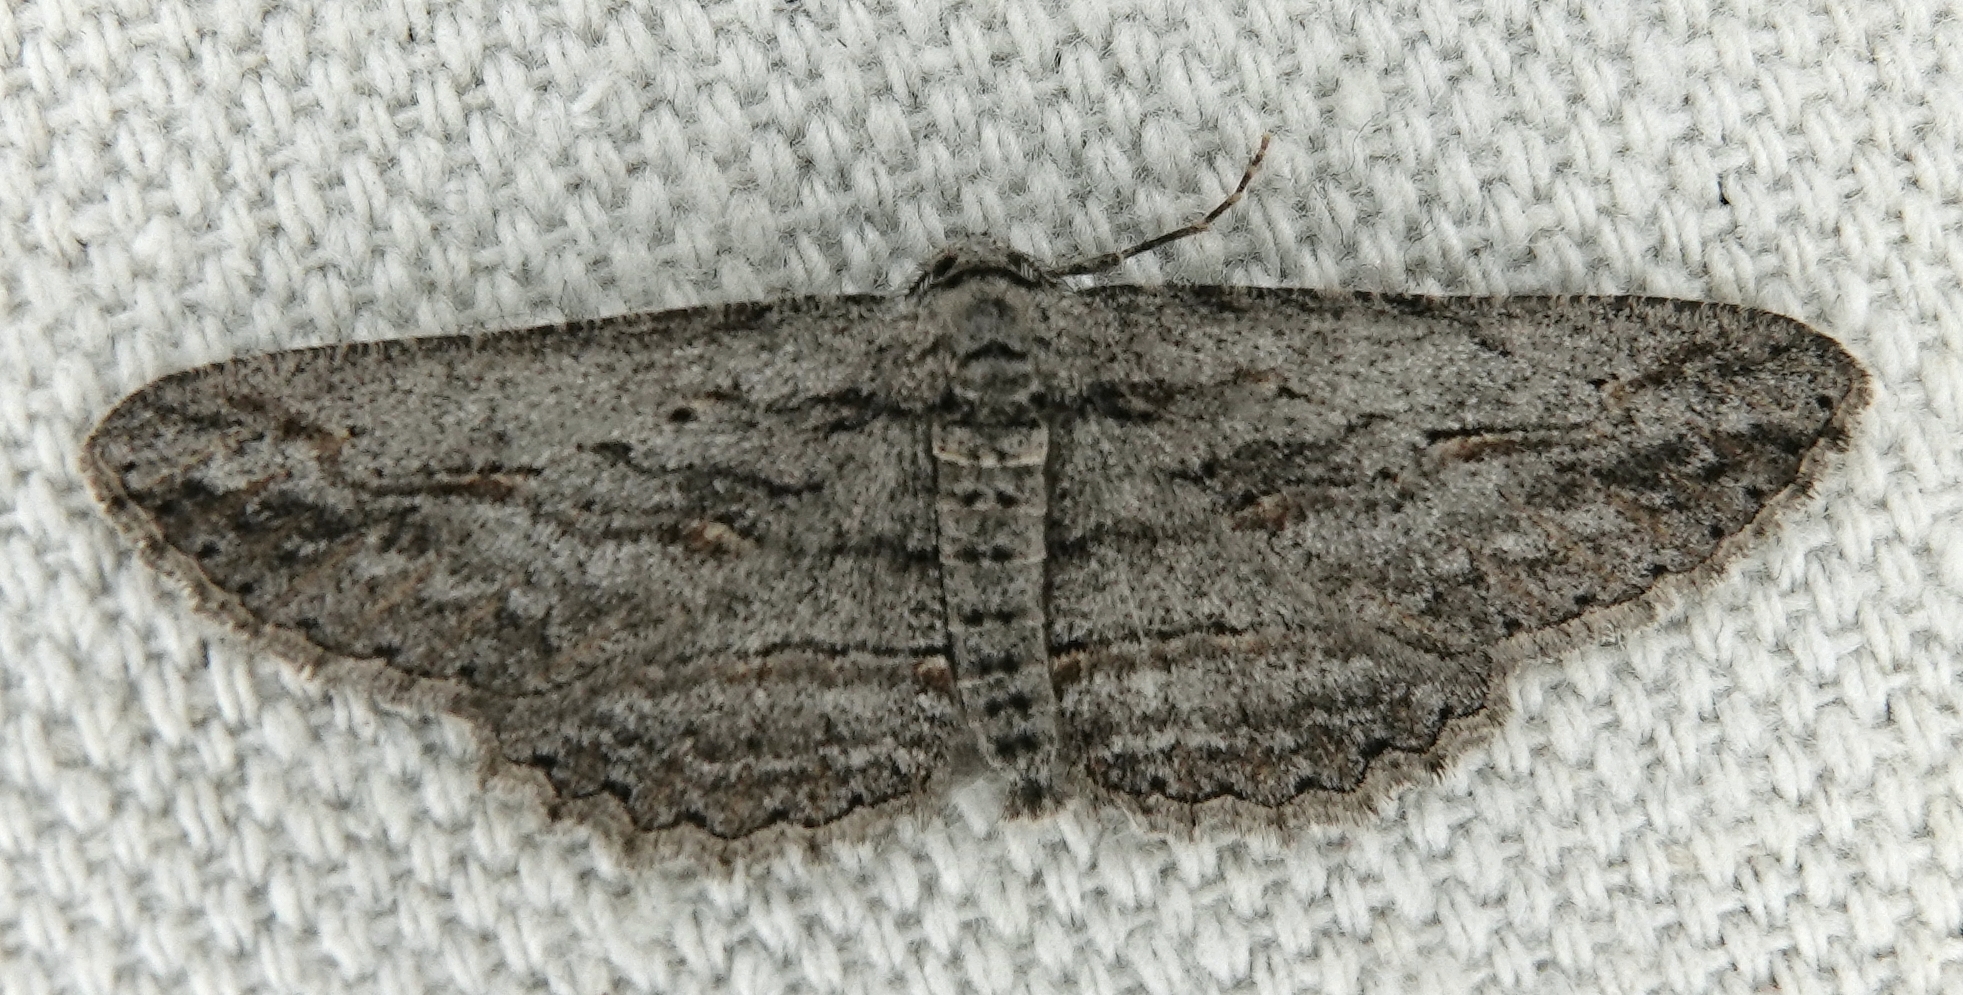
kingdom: Animalia
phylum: Arthropoda
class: Insecta
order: Lepidoptera
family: Geometridae
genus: Iridopsis
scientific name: Iridopsis clivinaria
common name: Mountain-mahogany looper
